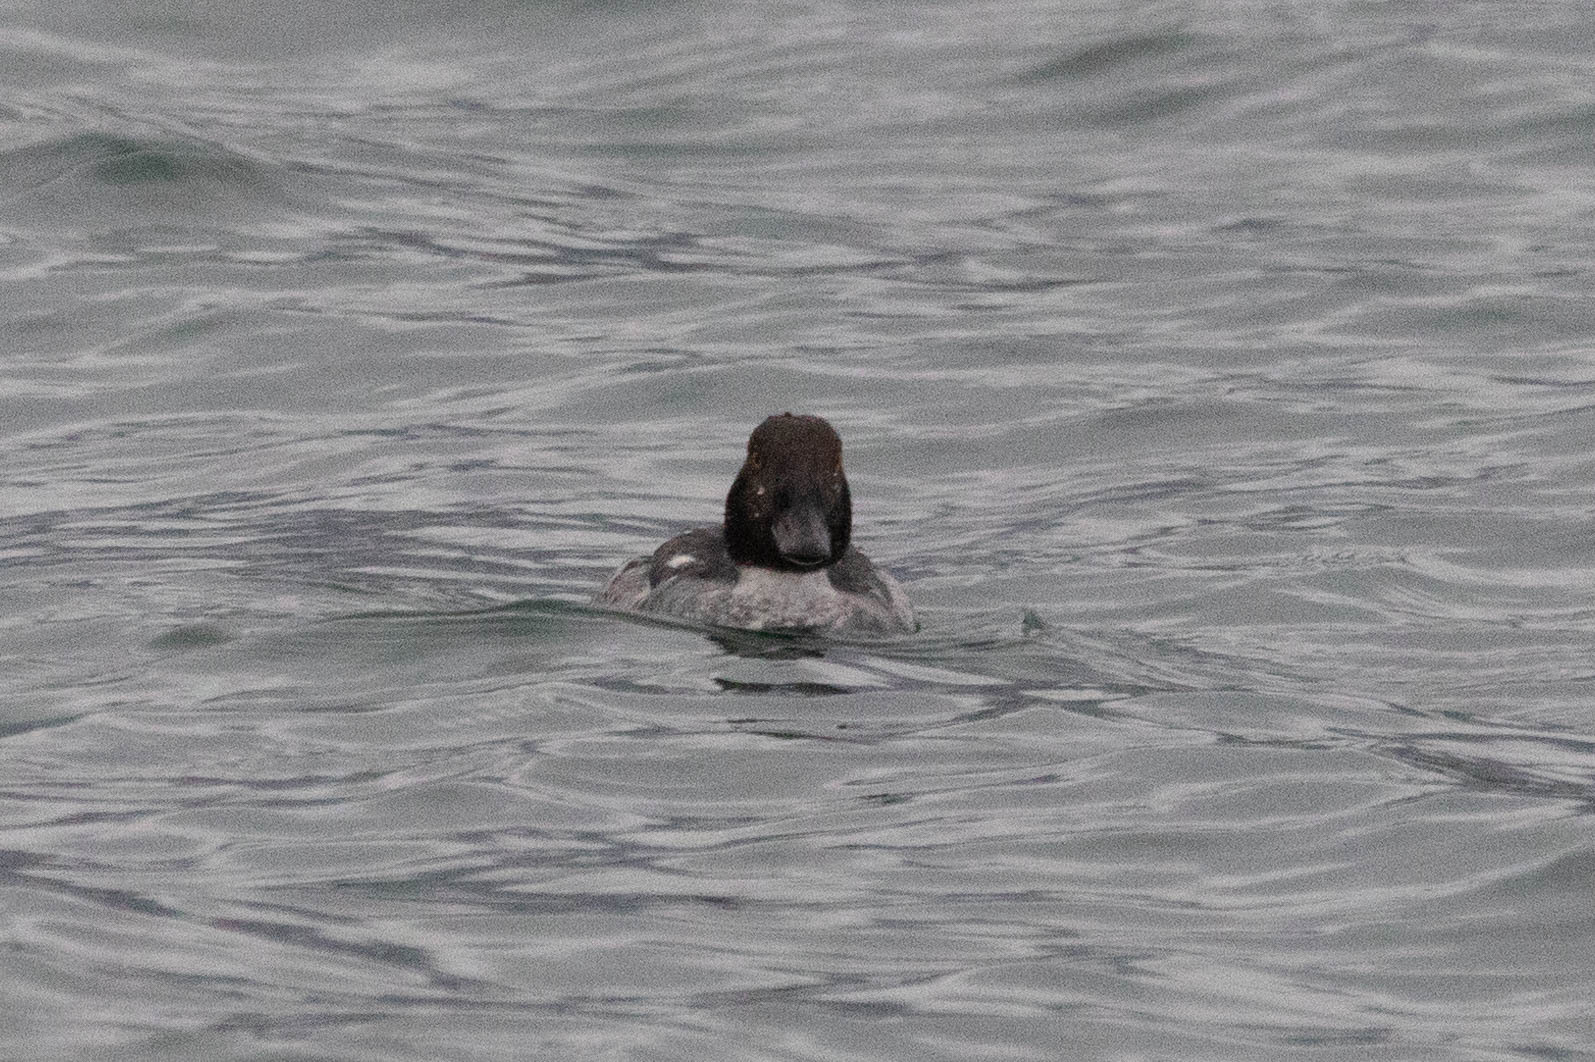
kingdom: Animalia
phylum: Chordata
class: Aves
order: Anseriformes
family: Anatidae
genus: Bucephala
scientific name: Bucephala clangula
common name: Common goldeneye
